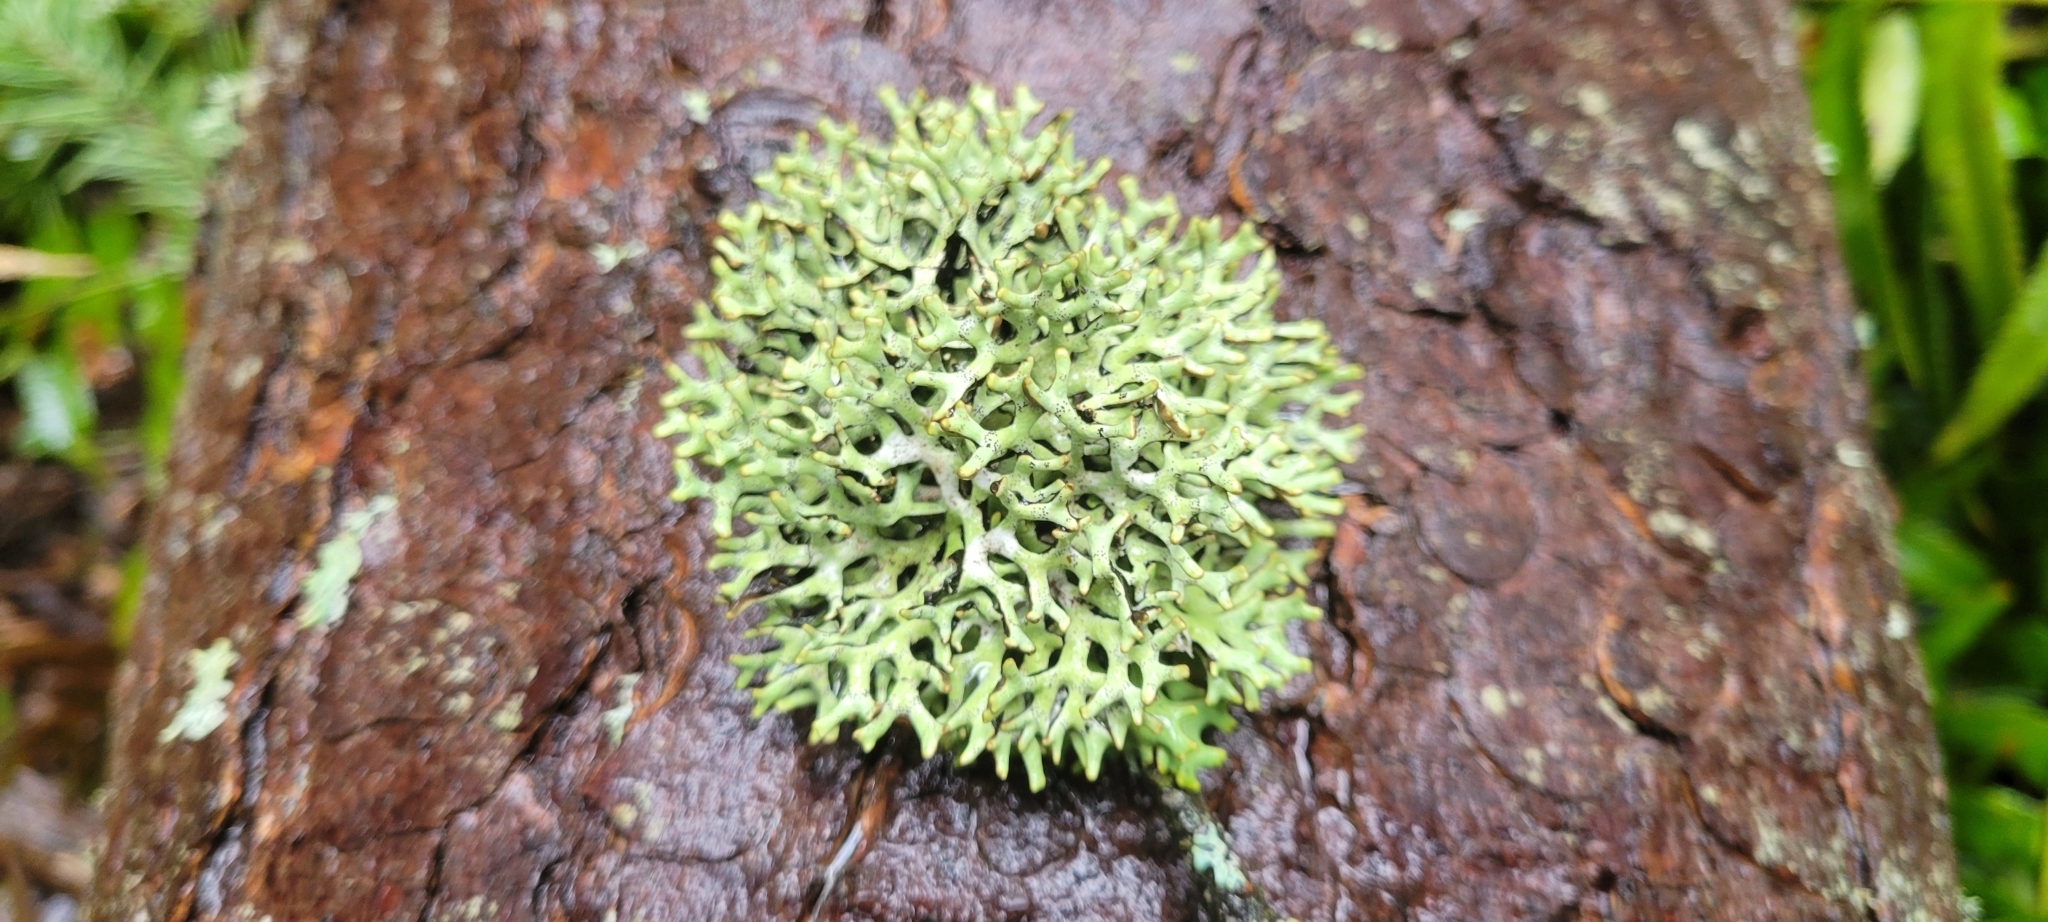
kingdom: Fungi
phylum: Ascomycota
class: Lecanoromycetes
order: Lecanorales
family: Parmeliaceae
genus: Hypogymnia
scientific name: Hypogymnia imshaugii
